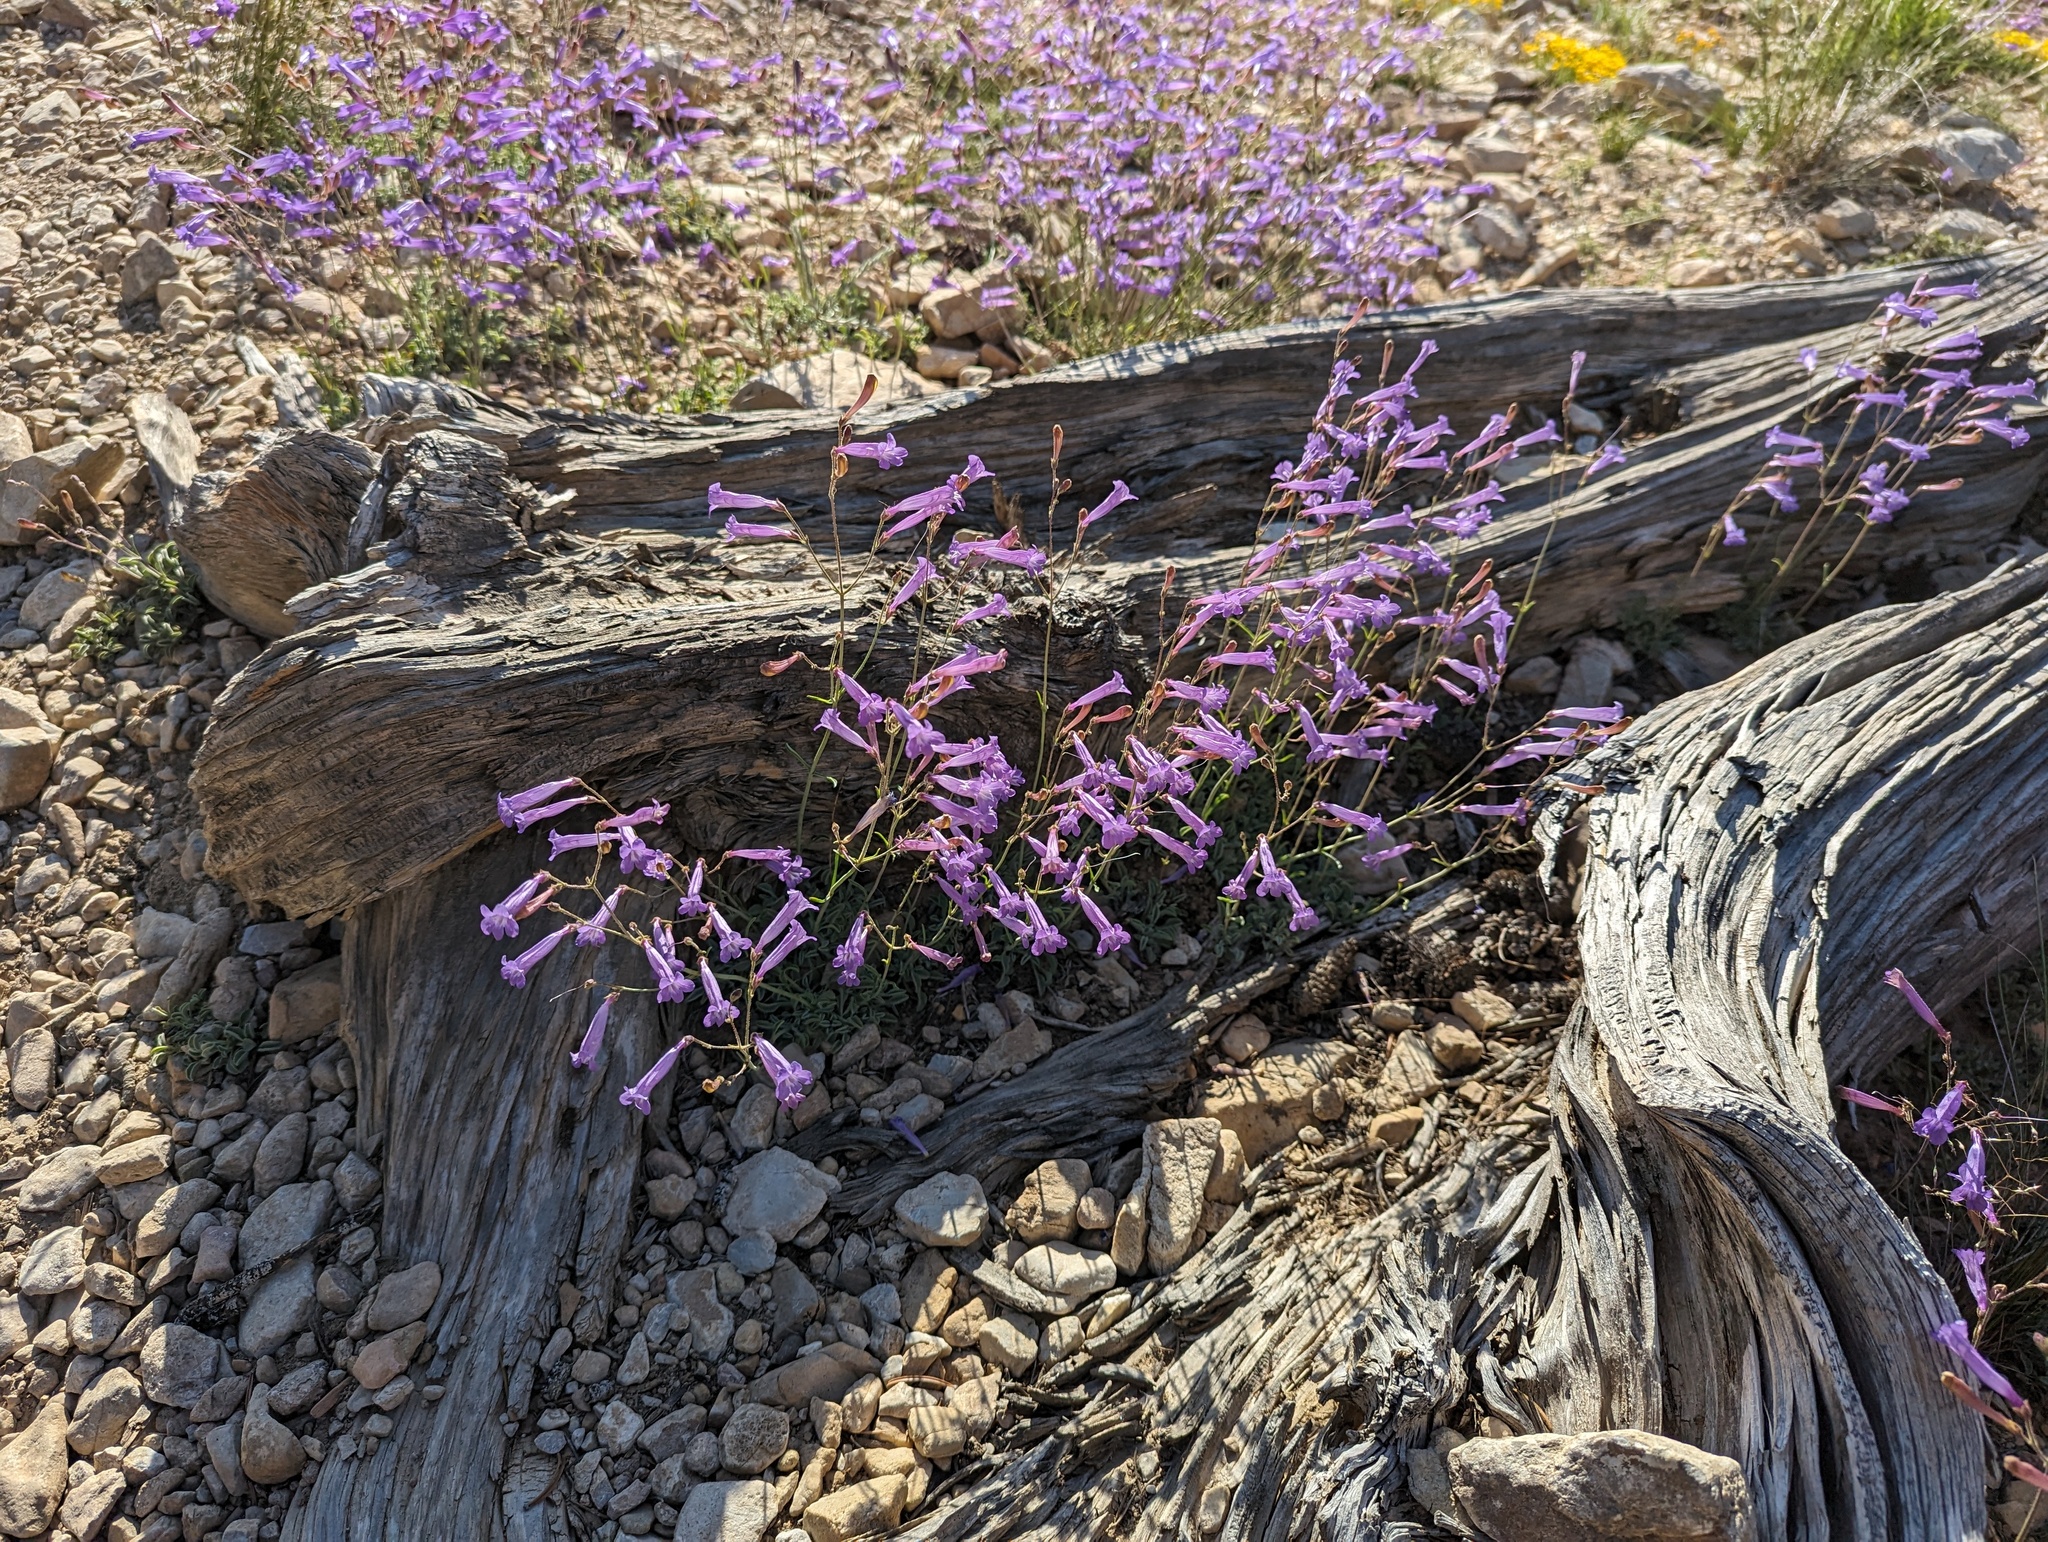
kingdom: Plantae
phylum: Tracheophyta
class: Magnoliopsida
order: Lamiales
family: Plantaginaceae
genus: Penstemon
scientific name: Penstemon scapoides
